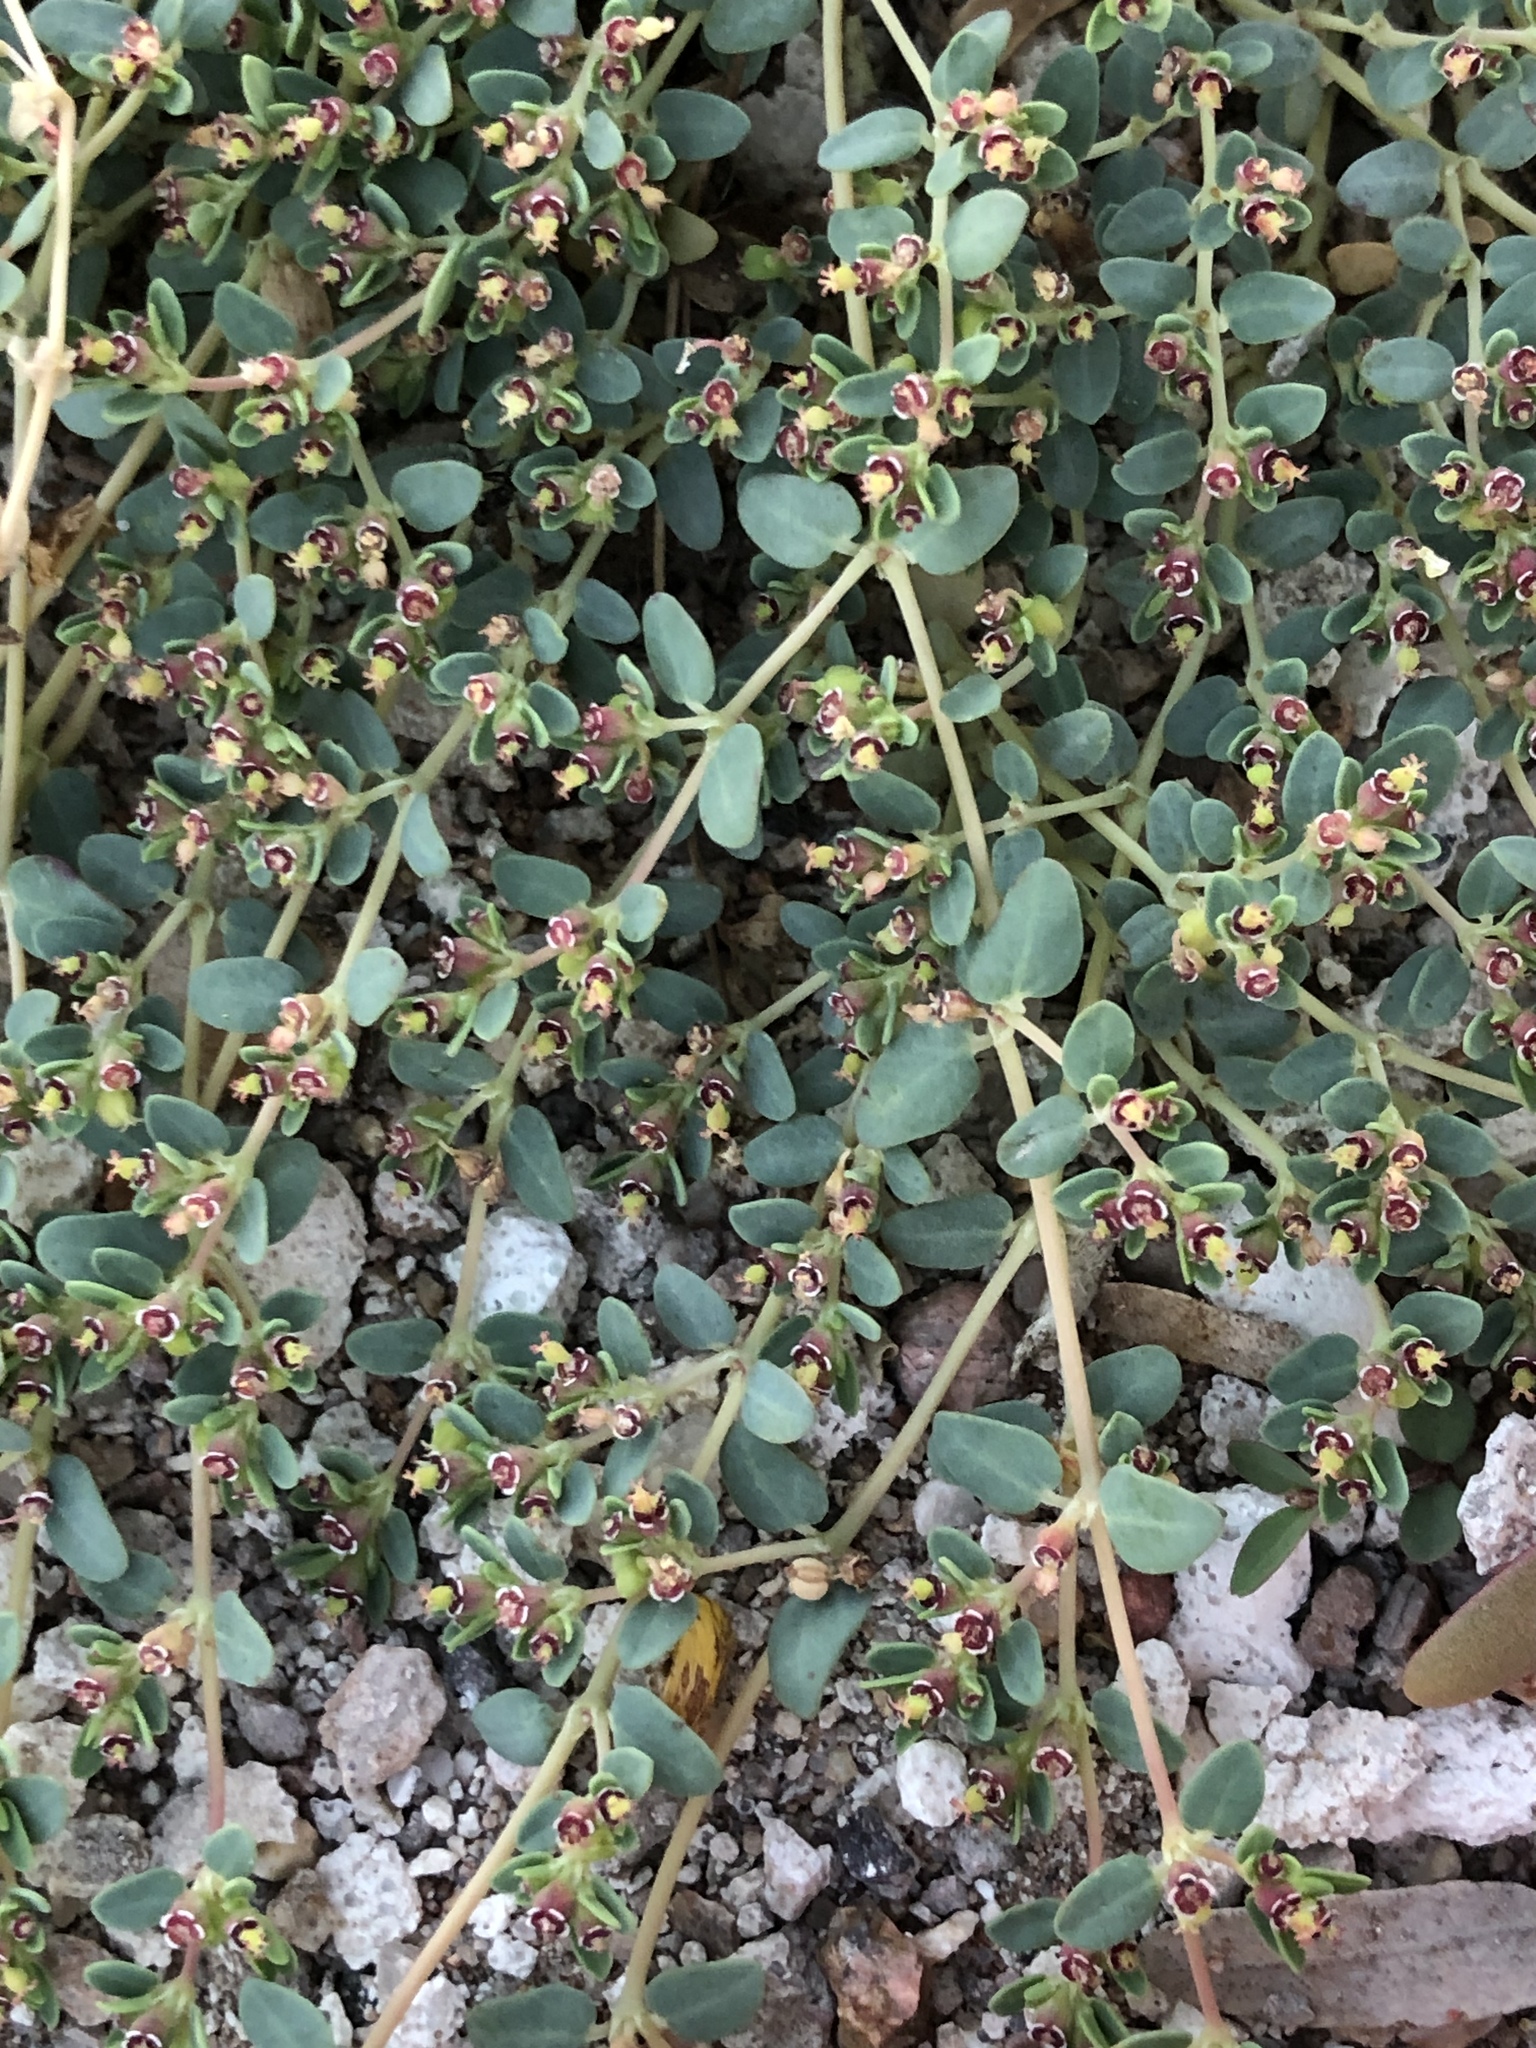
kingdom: Plantae
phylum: Tracheophyta
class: Magnoliopsida
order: Malpighiales
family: Euphorbiaceae
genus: Euphorbia
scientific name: Euphorbia polycarpa
